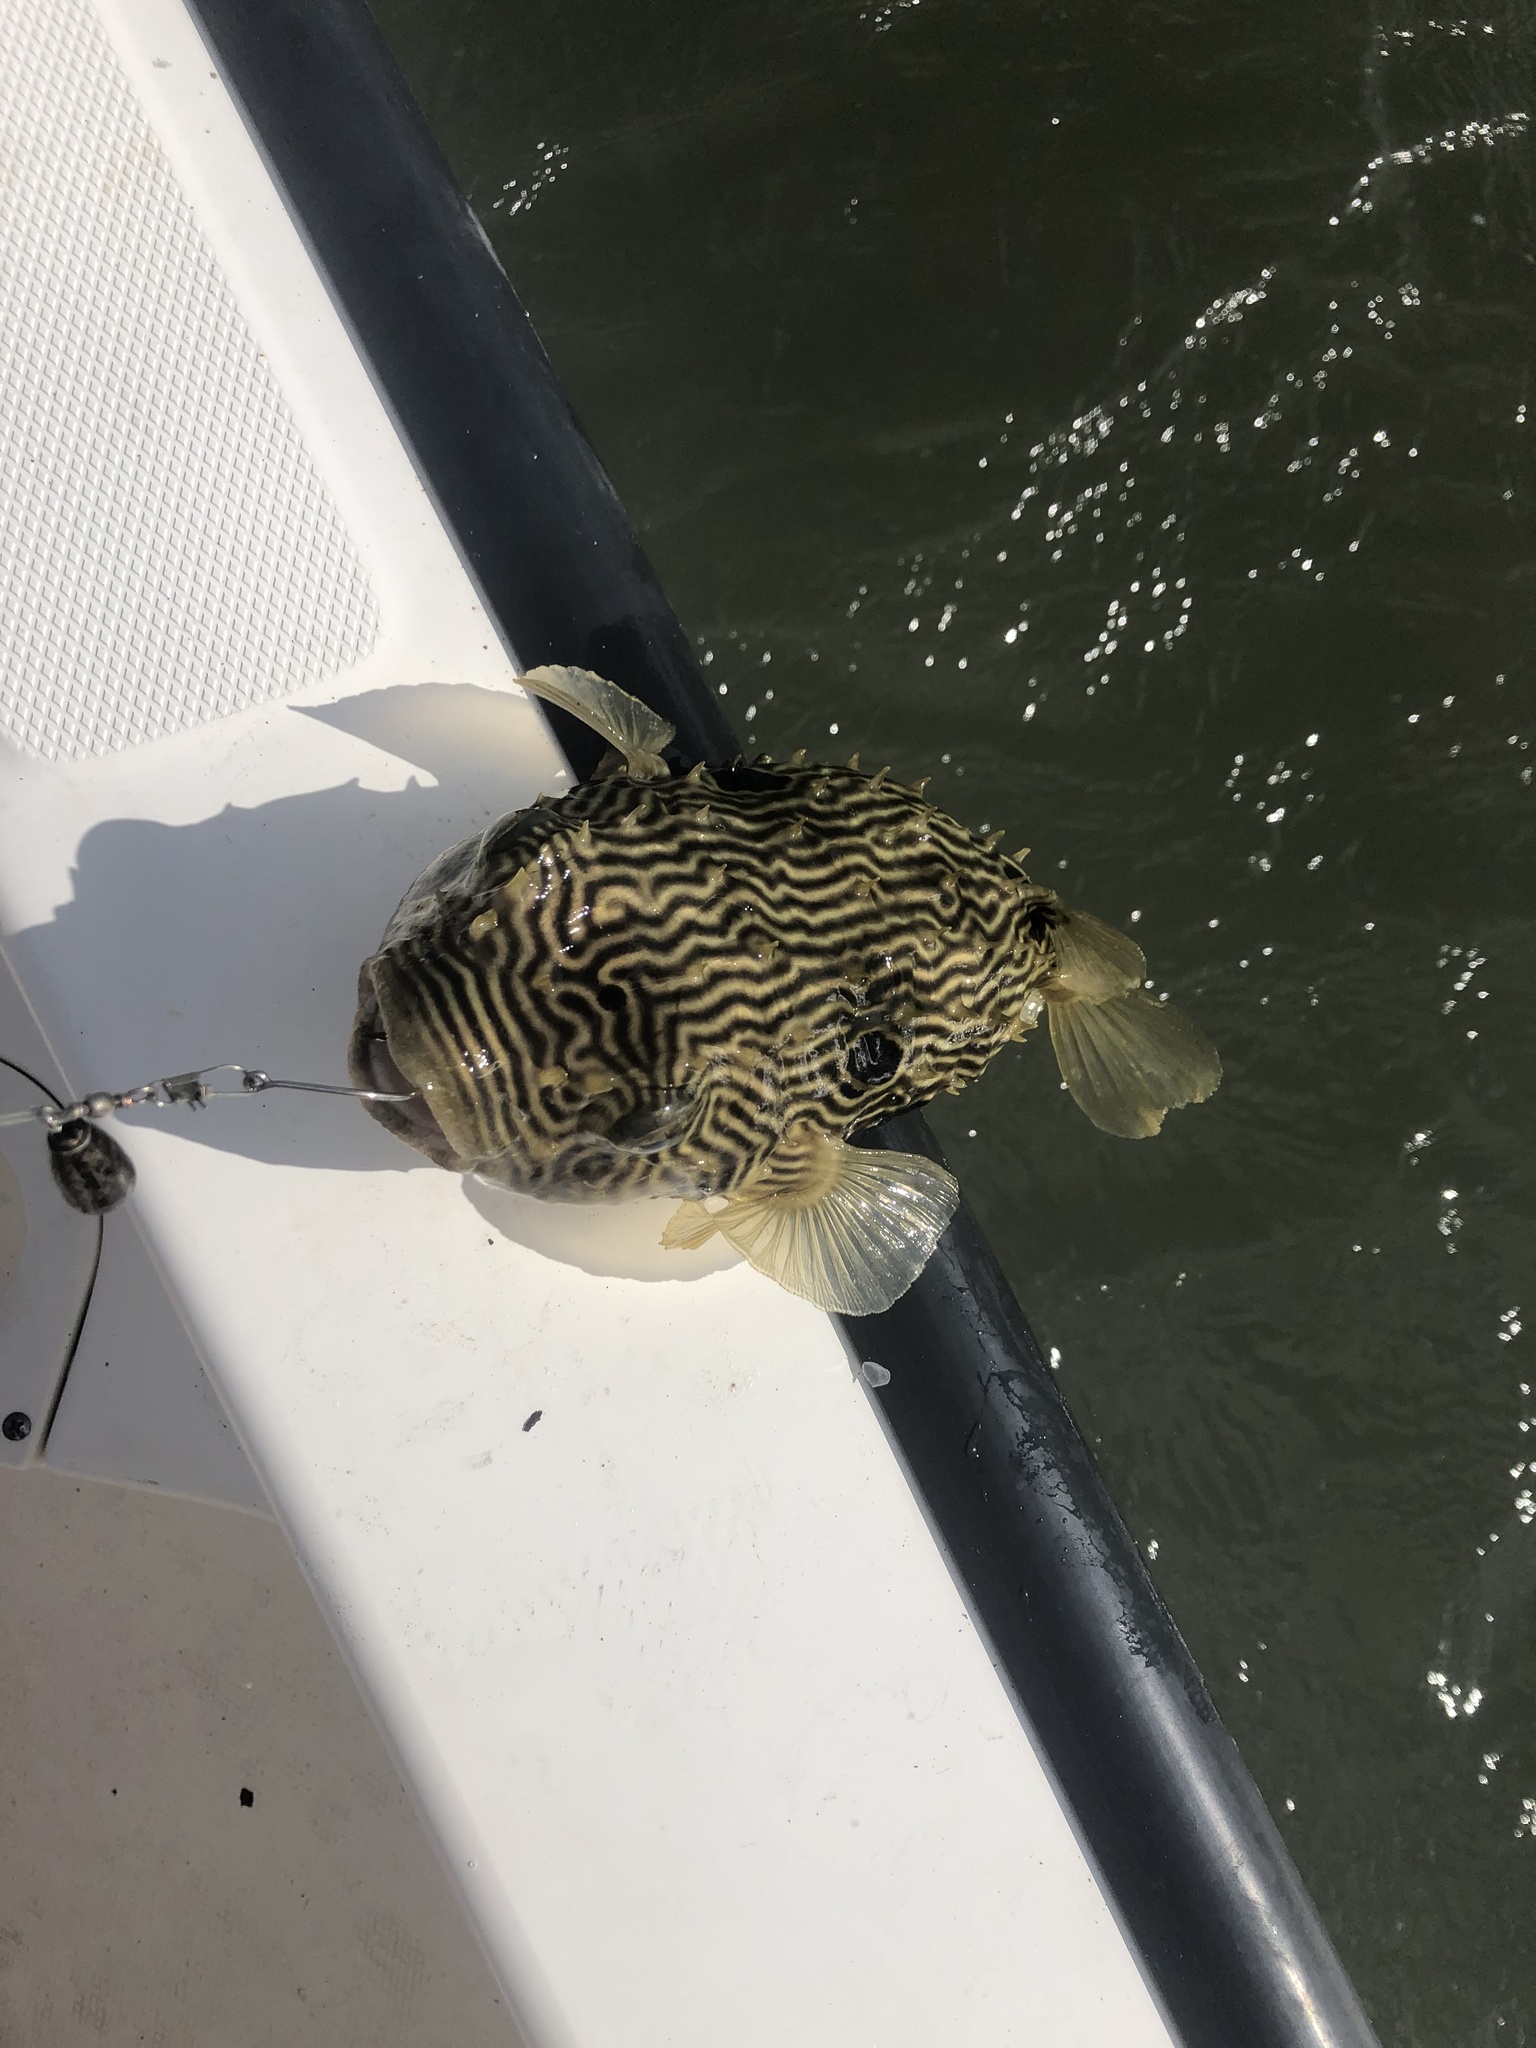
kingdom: Animalia
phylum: Chordata
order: Tetraodontiformes
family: Diodontidae
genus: Chilomycterus
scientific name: Chilomycterus schoepfii
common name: Striped burrfish
